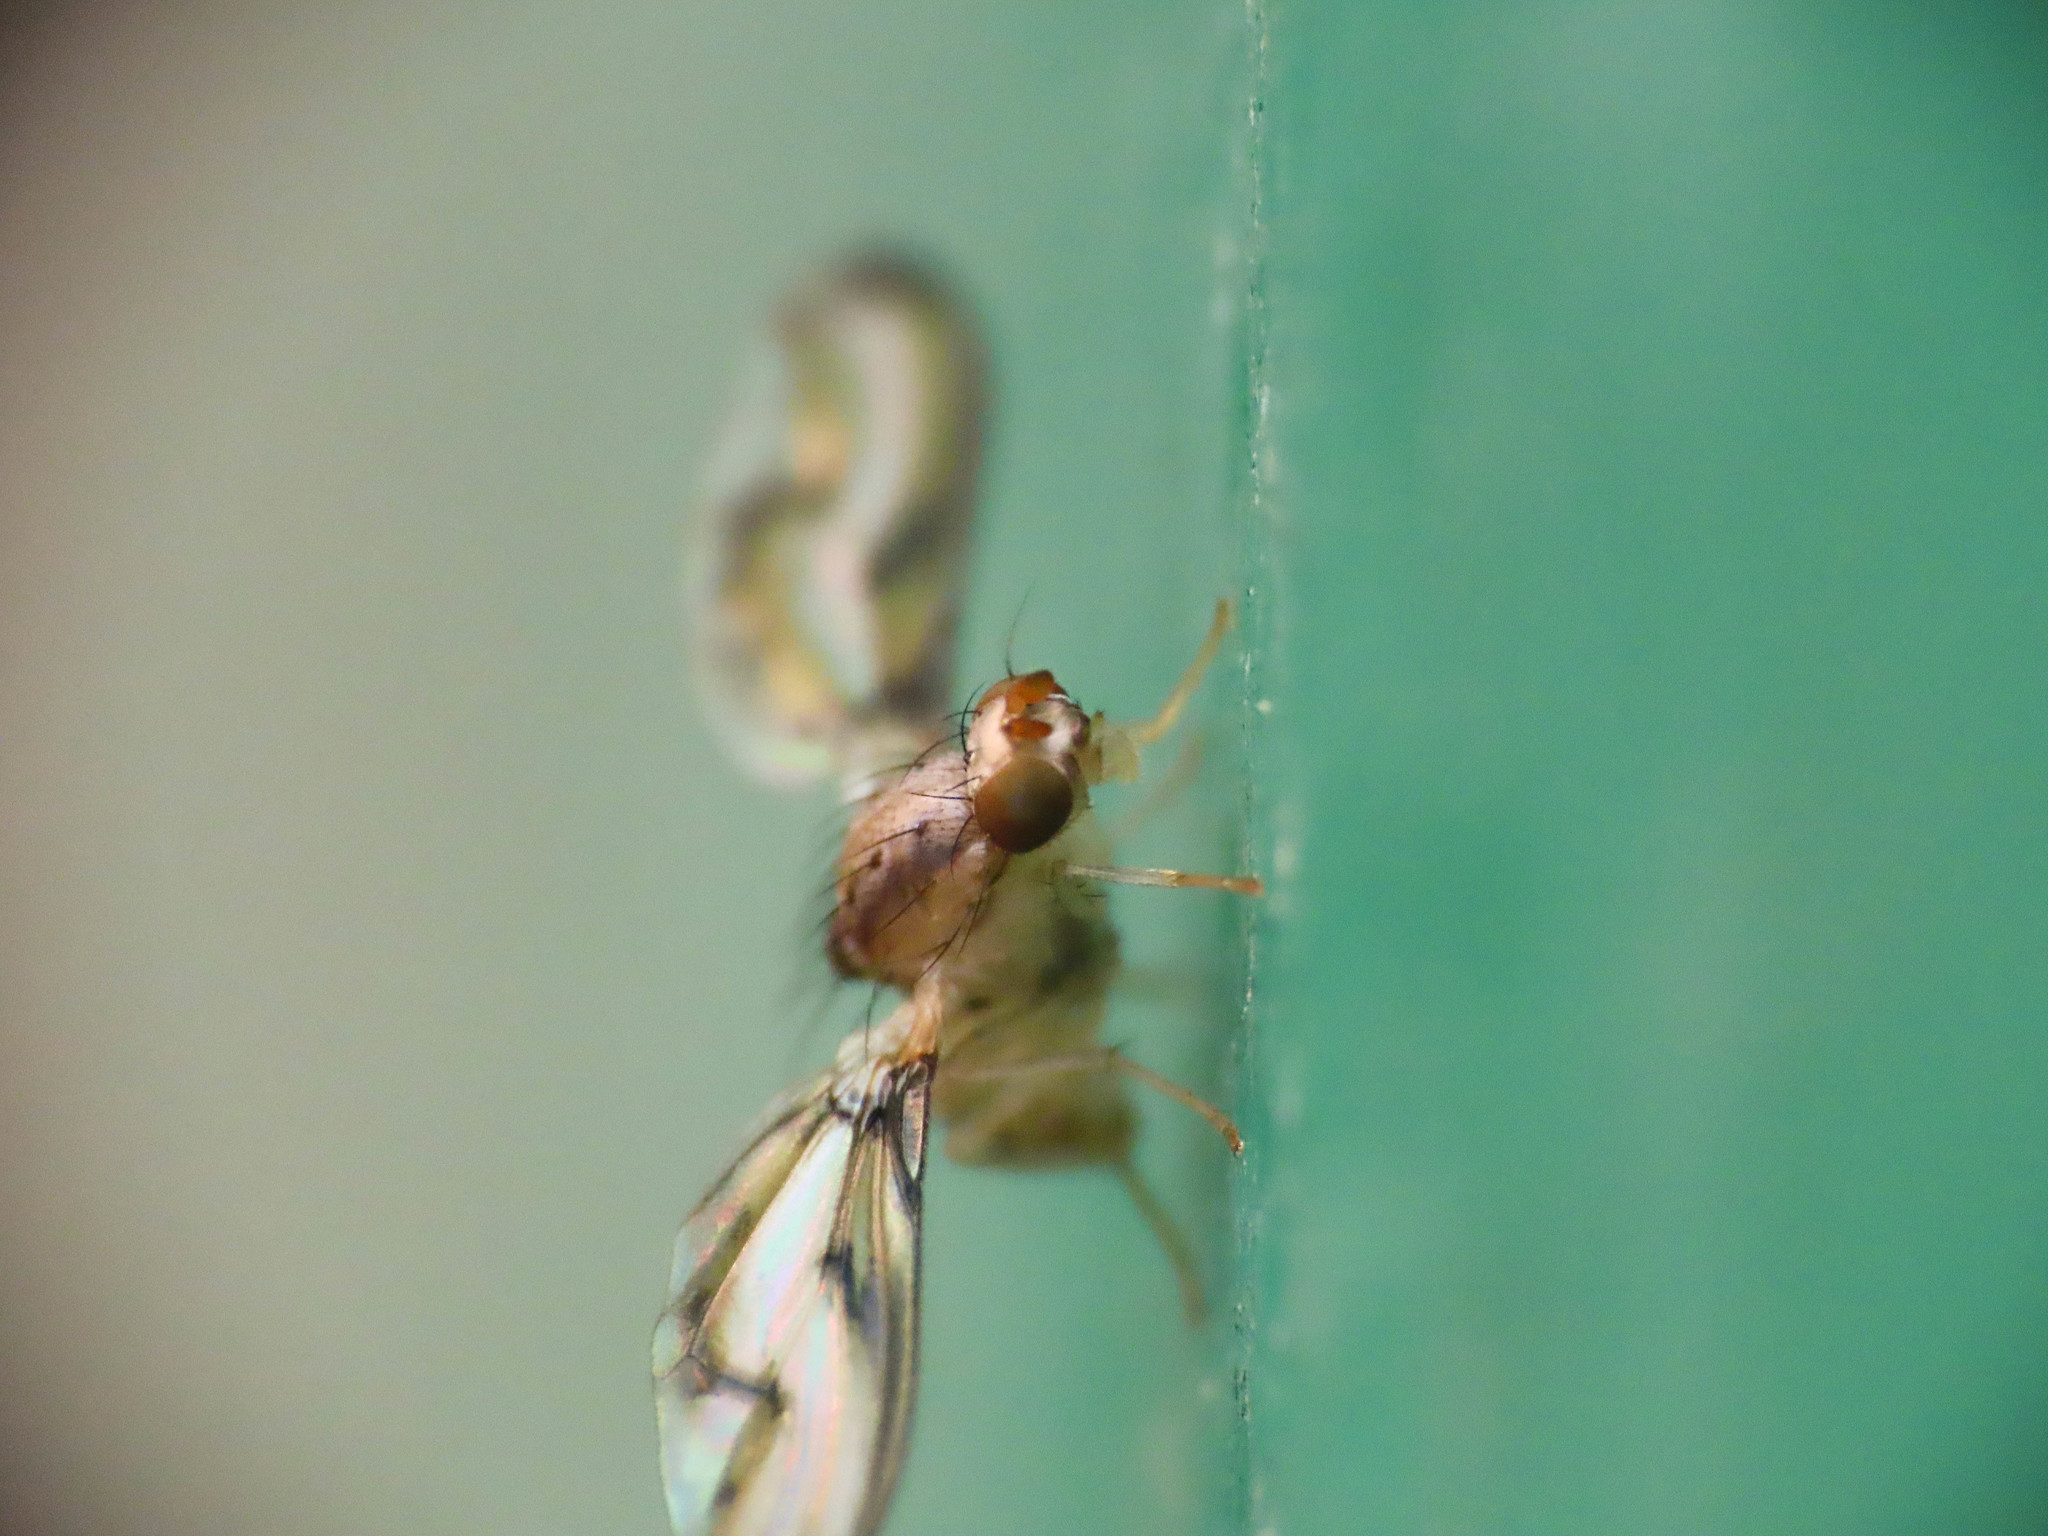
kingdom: Animalia
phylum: Arthropoda
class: Insecta
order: Diptera
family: Pallopteridae
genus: Toxonevra
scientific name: Toxonevra muliebris
